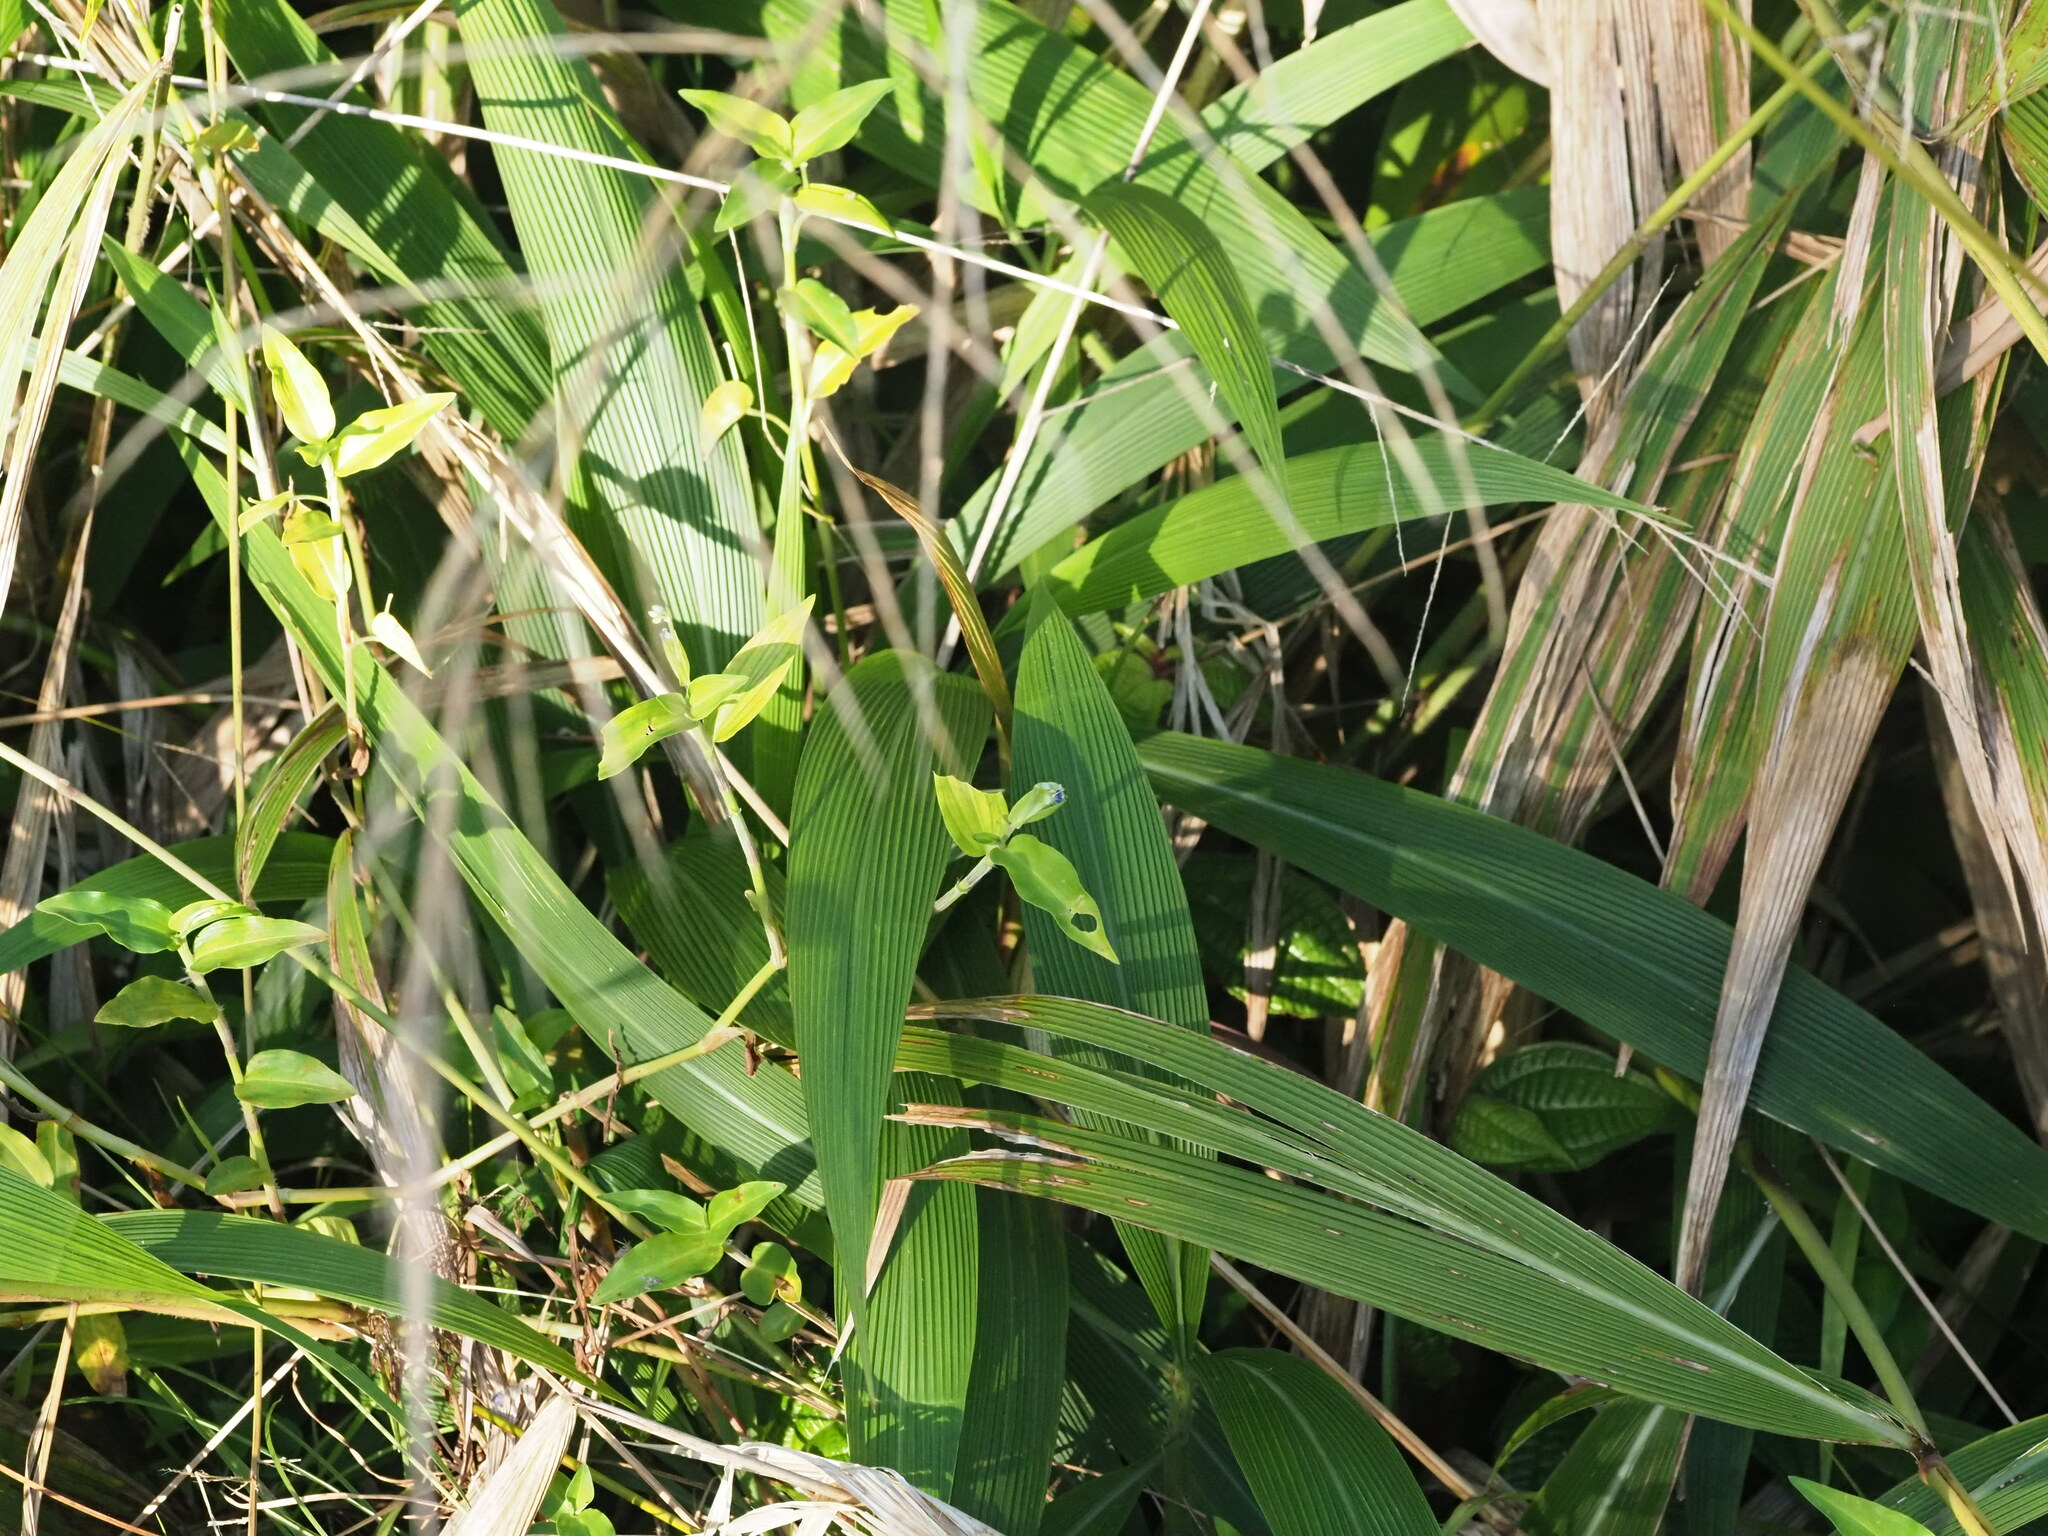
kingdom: Plantae
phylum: Tracheophyta
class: Liliopsida
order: Poales
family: Poaceae
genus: Setaria
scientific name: Setaria palmifolia
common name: Broadleaved bristlegrass
